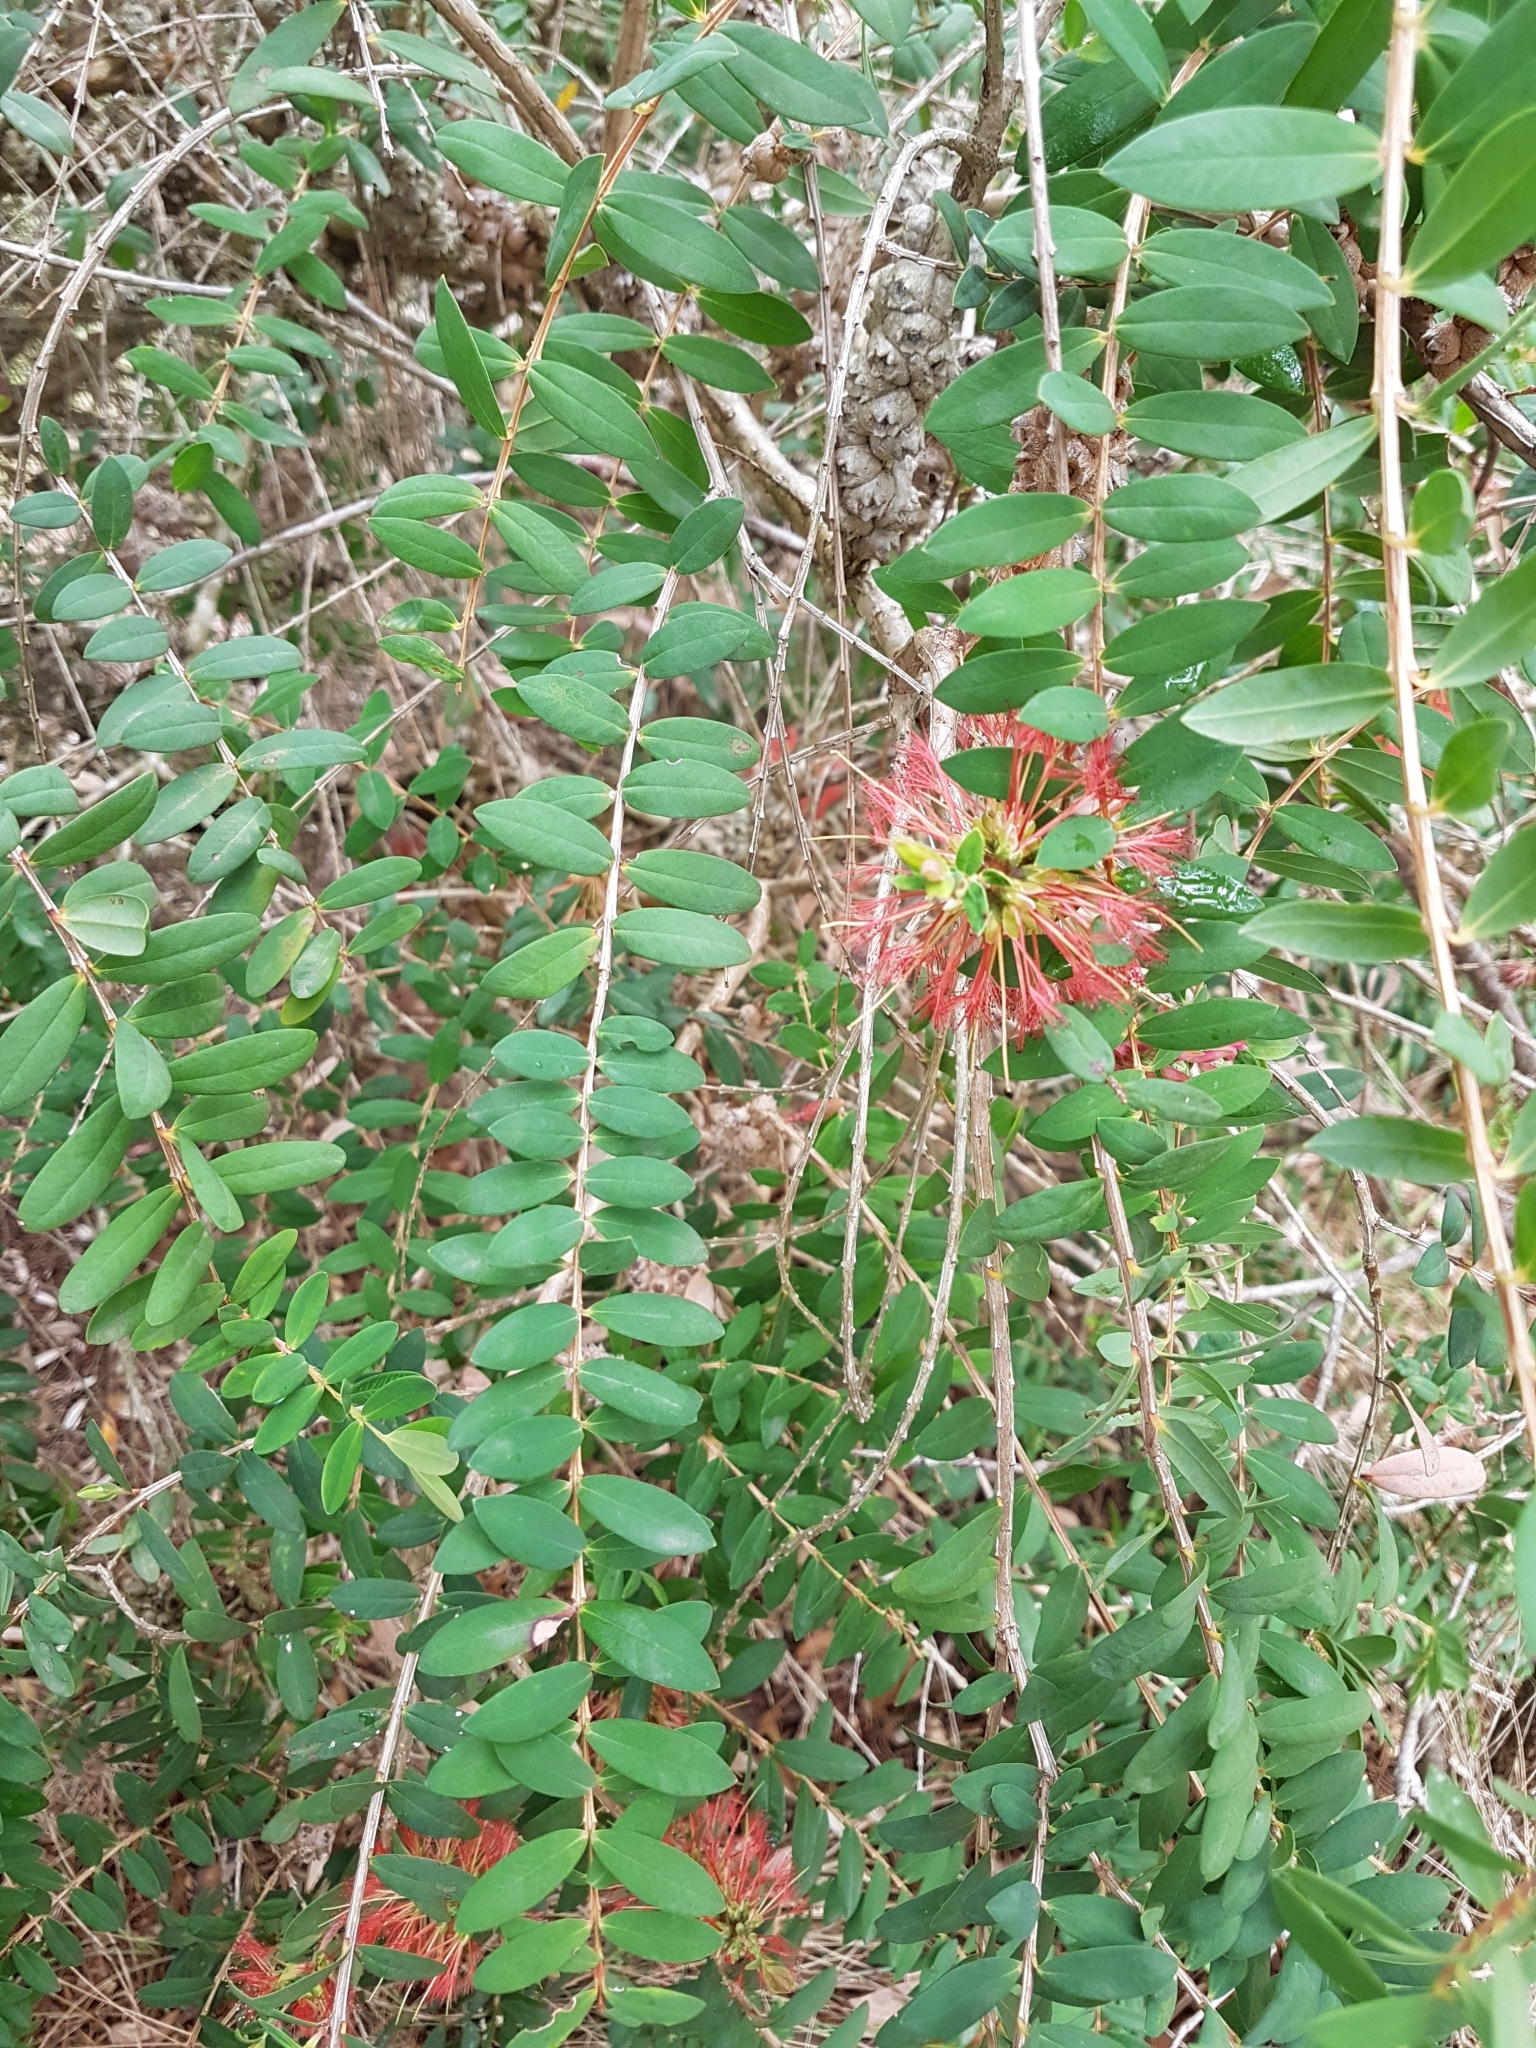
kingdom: Plantae
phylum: Tracheophyta
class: Magnoliopsida
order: Myrtales
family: Myrtaceae
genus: Melaleuca
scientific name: Melaleuca hypericifolia
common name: Red honey myrtle
